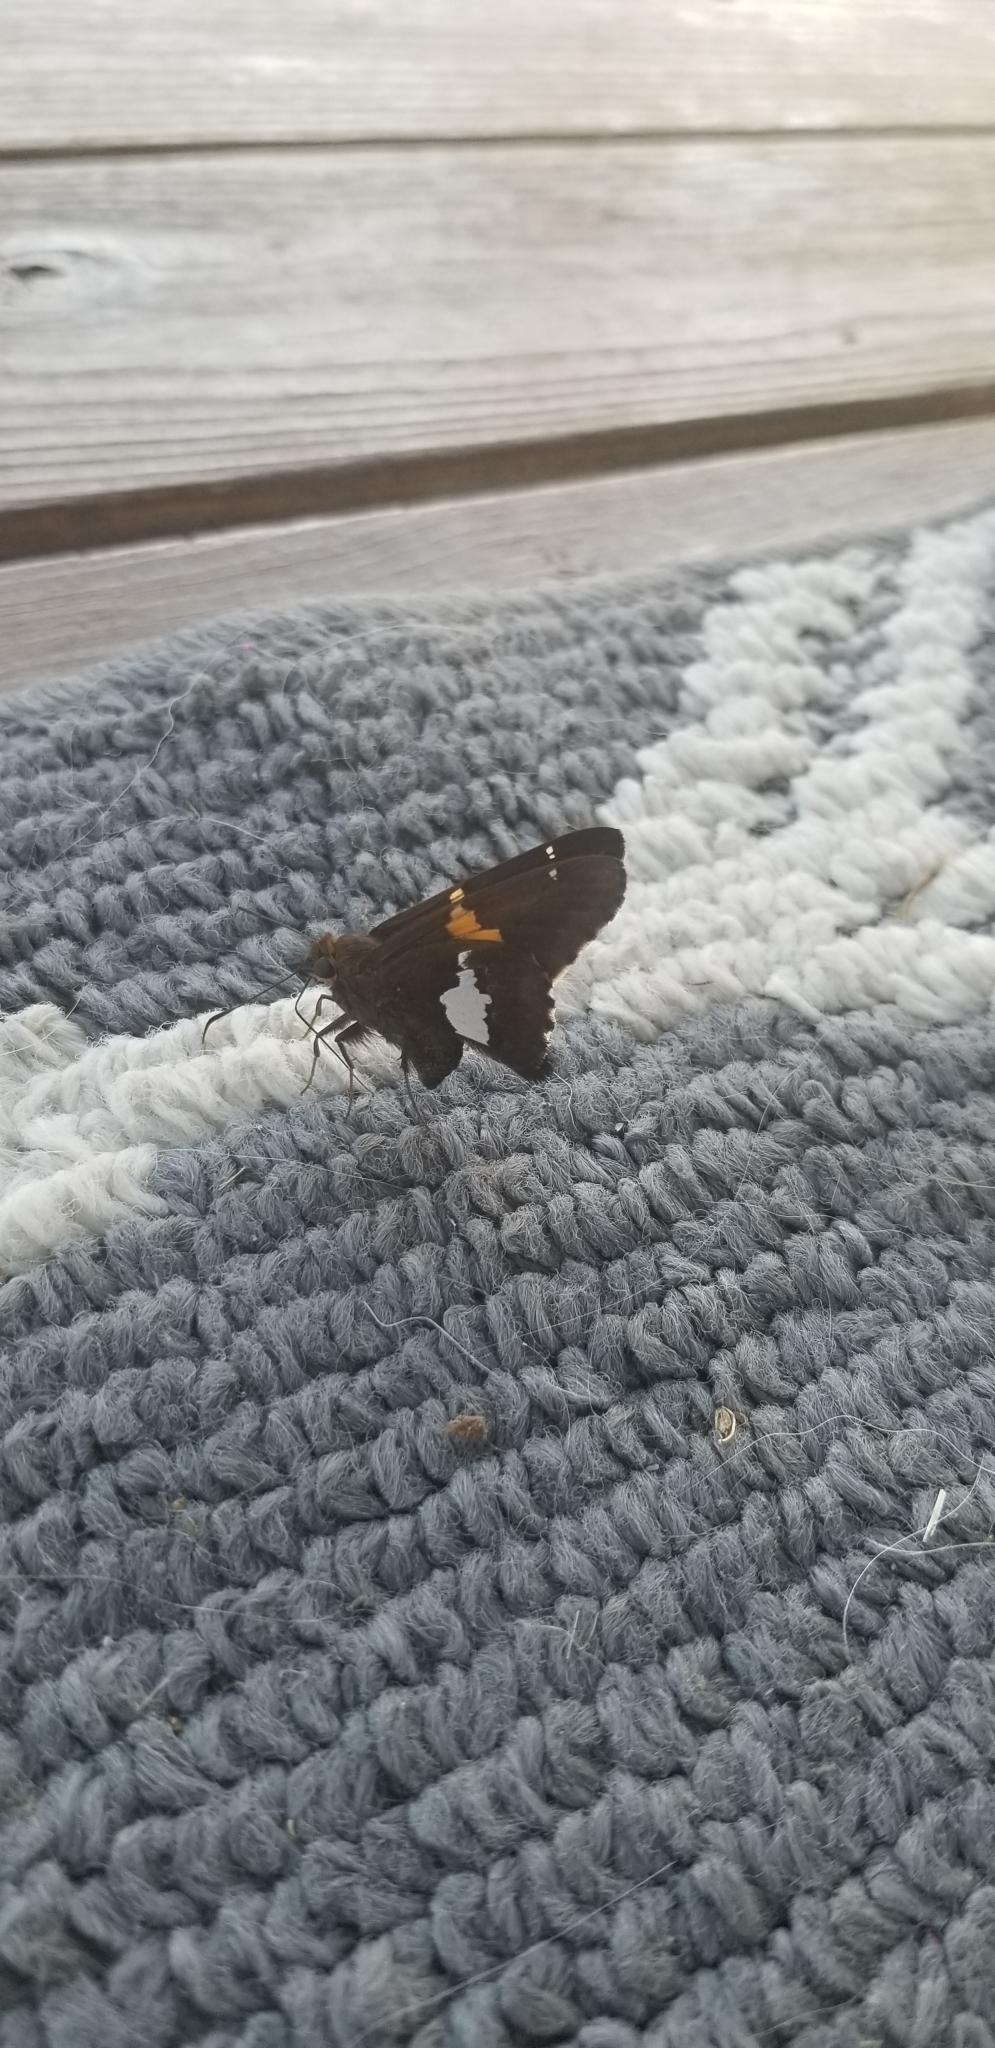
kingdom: Animalia
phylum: Arthropoda
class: Insecta
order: Lepidoptera
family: Hesperiidae
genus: Epargyreus
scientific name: Epargyreus clarus
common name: Silver-spotted skipper
